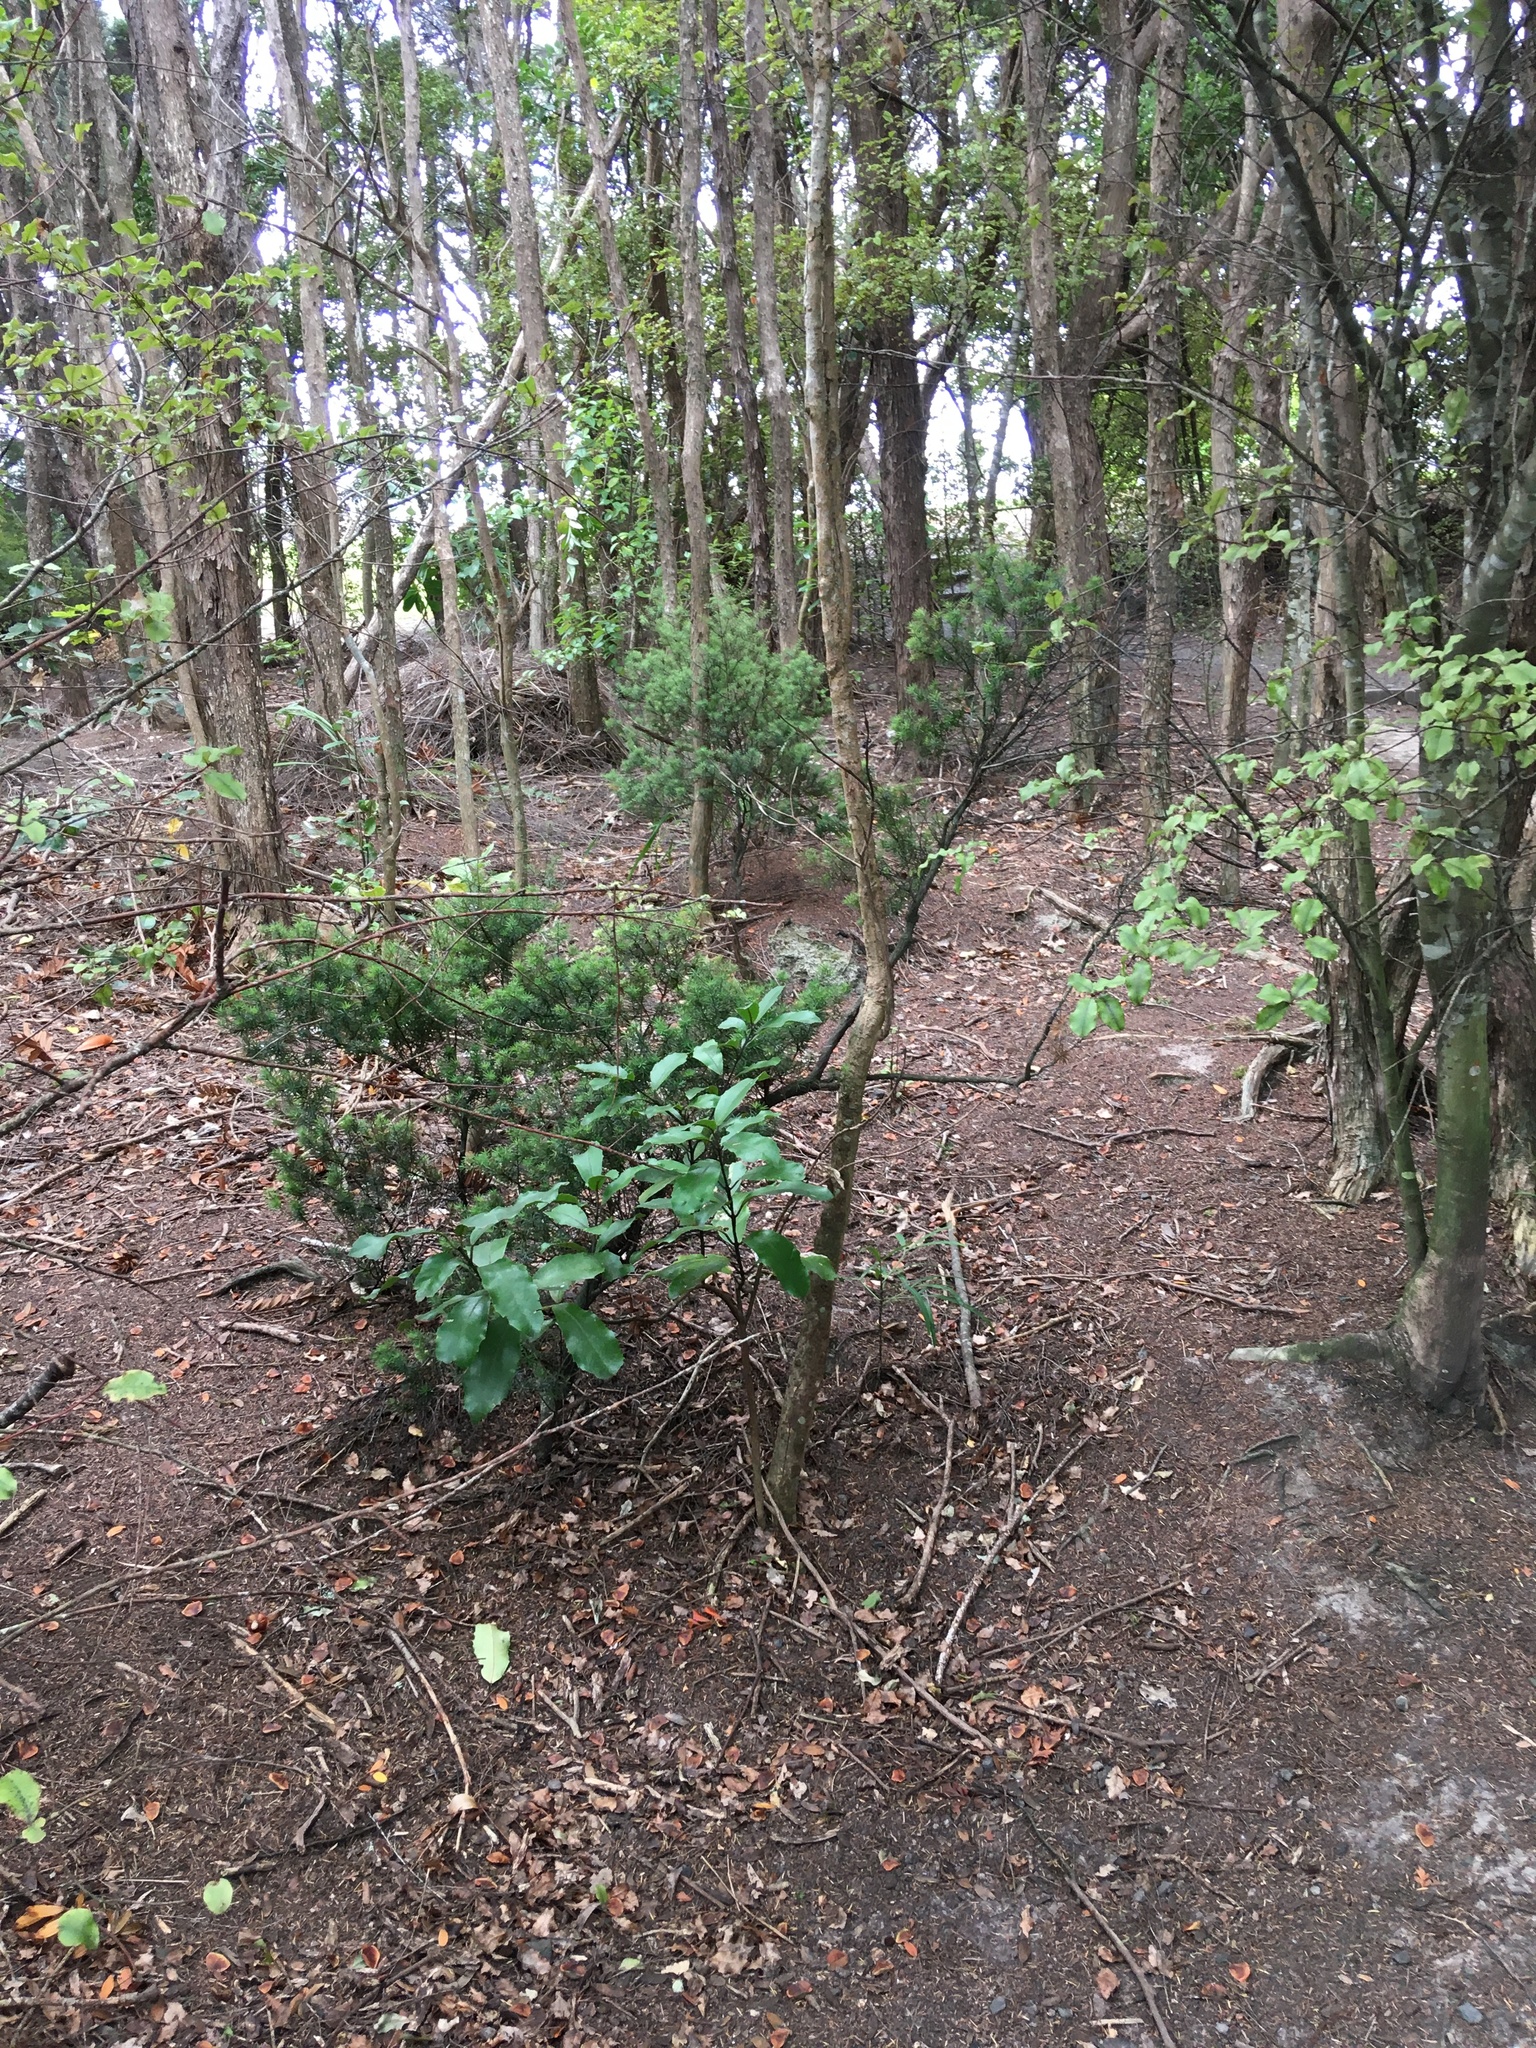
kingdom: Plantae
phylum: Tracheophyta
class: Magnoliopsida
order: Laurales
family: Monimiaceae
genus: Hedycarya
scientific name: Hedycarya arborea
